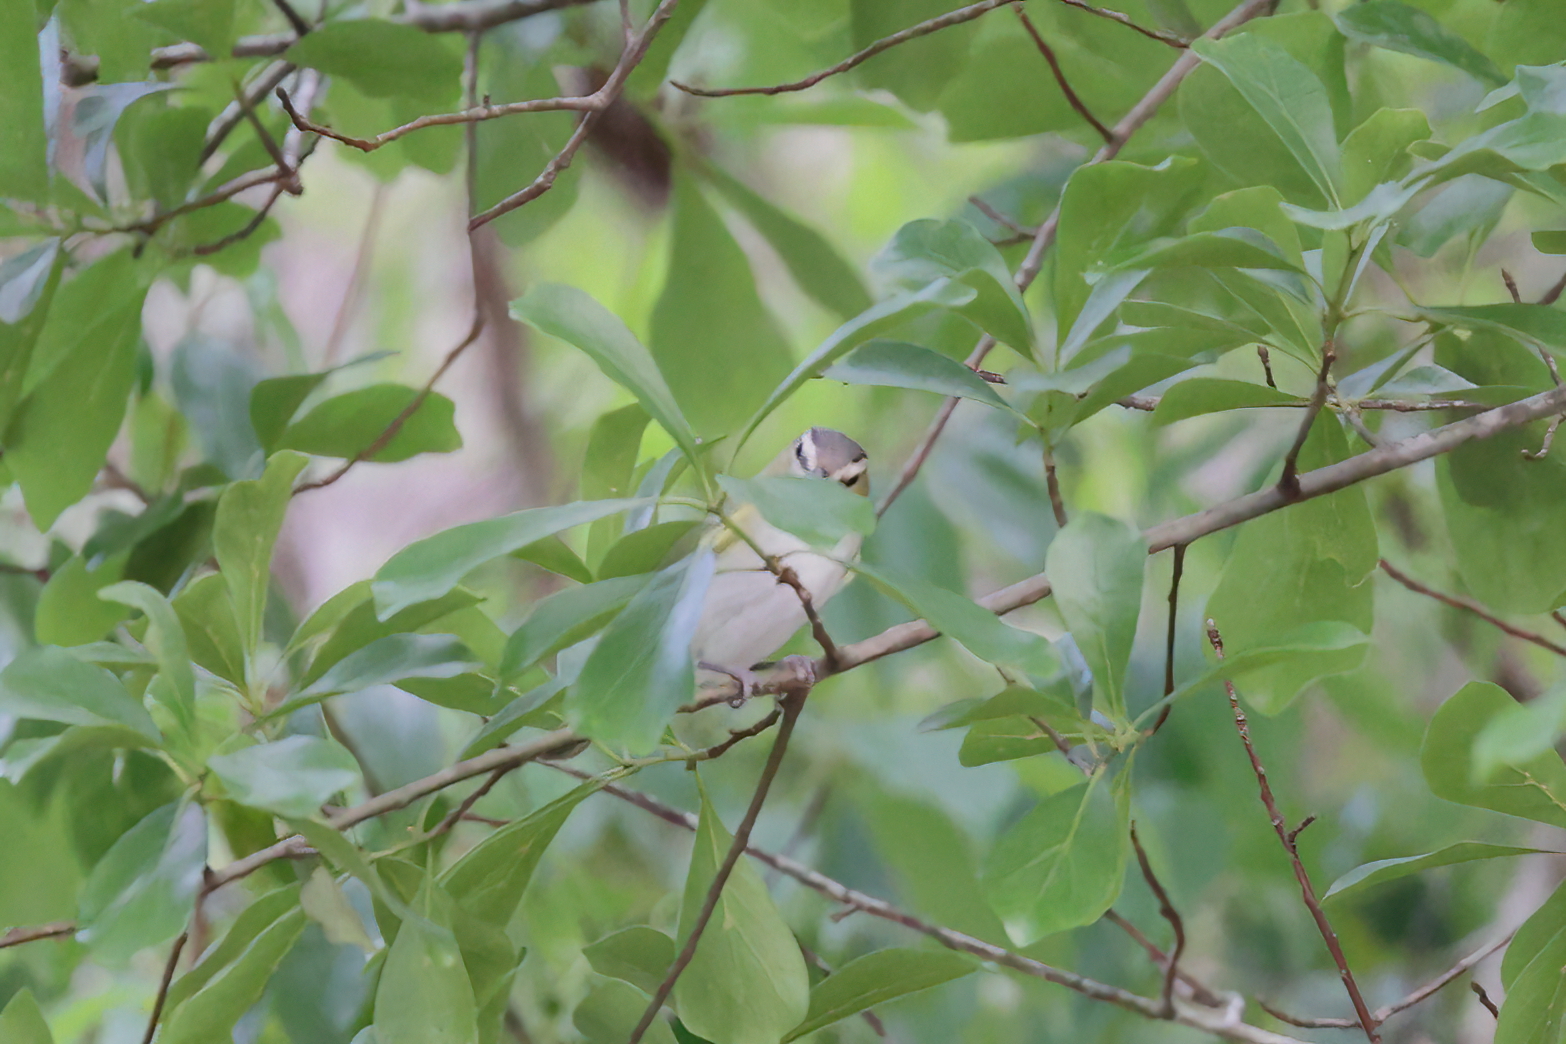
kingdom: Animalia
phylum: Chordata
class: Aves
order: Passeriformes
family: Vireonidae
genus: Vireo
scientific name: Vireo olivaceus
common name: Red-eyed vireo
